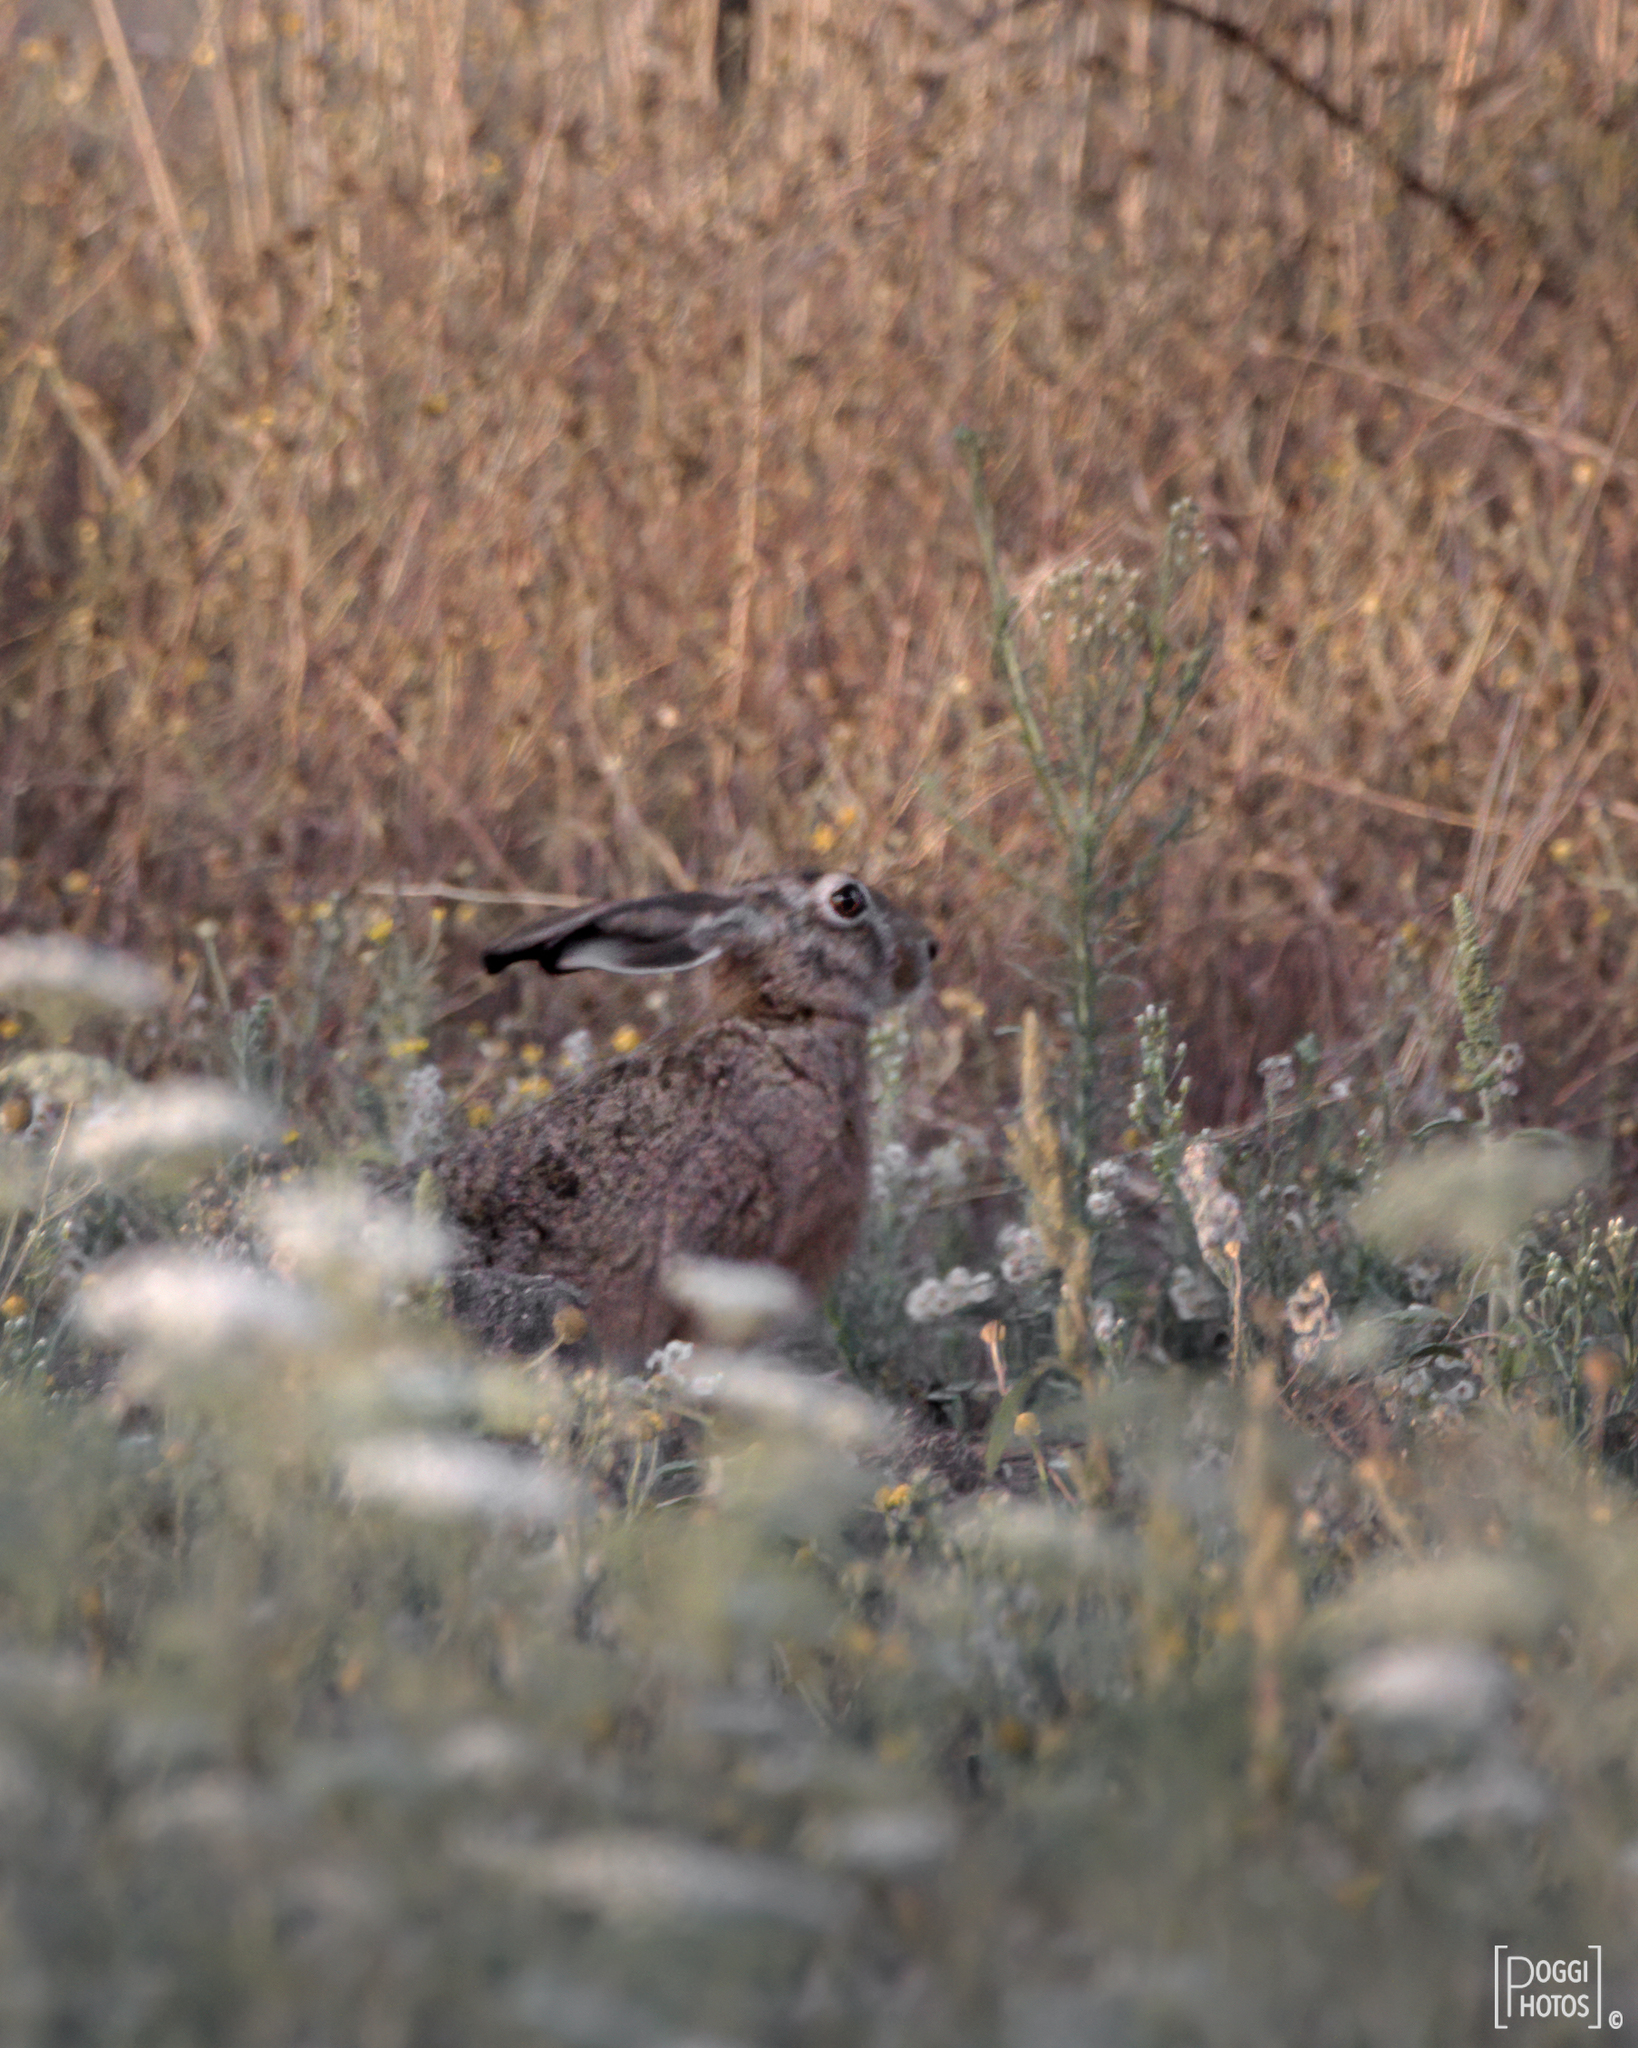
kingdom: Animalia
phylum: Chordata
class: Mammalia
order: Lagomorpha
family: Leporidae
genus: Lepus
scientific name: Lepus europaeus
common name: European hare
